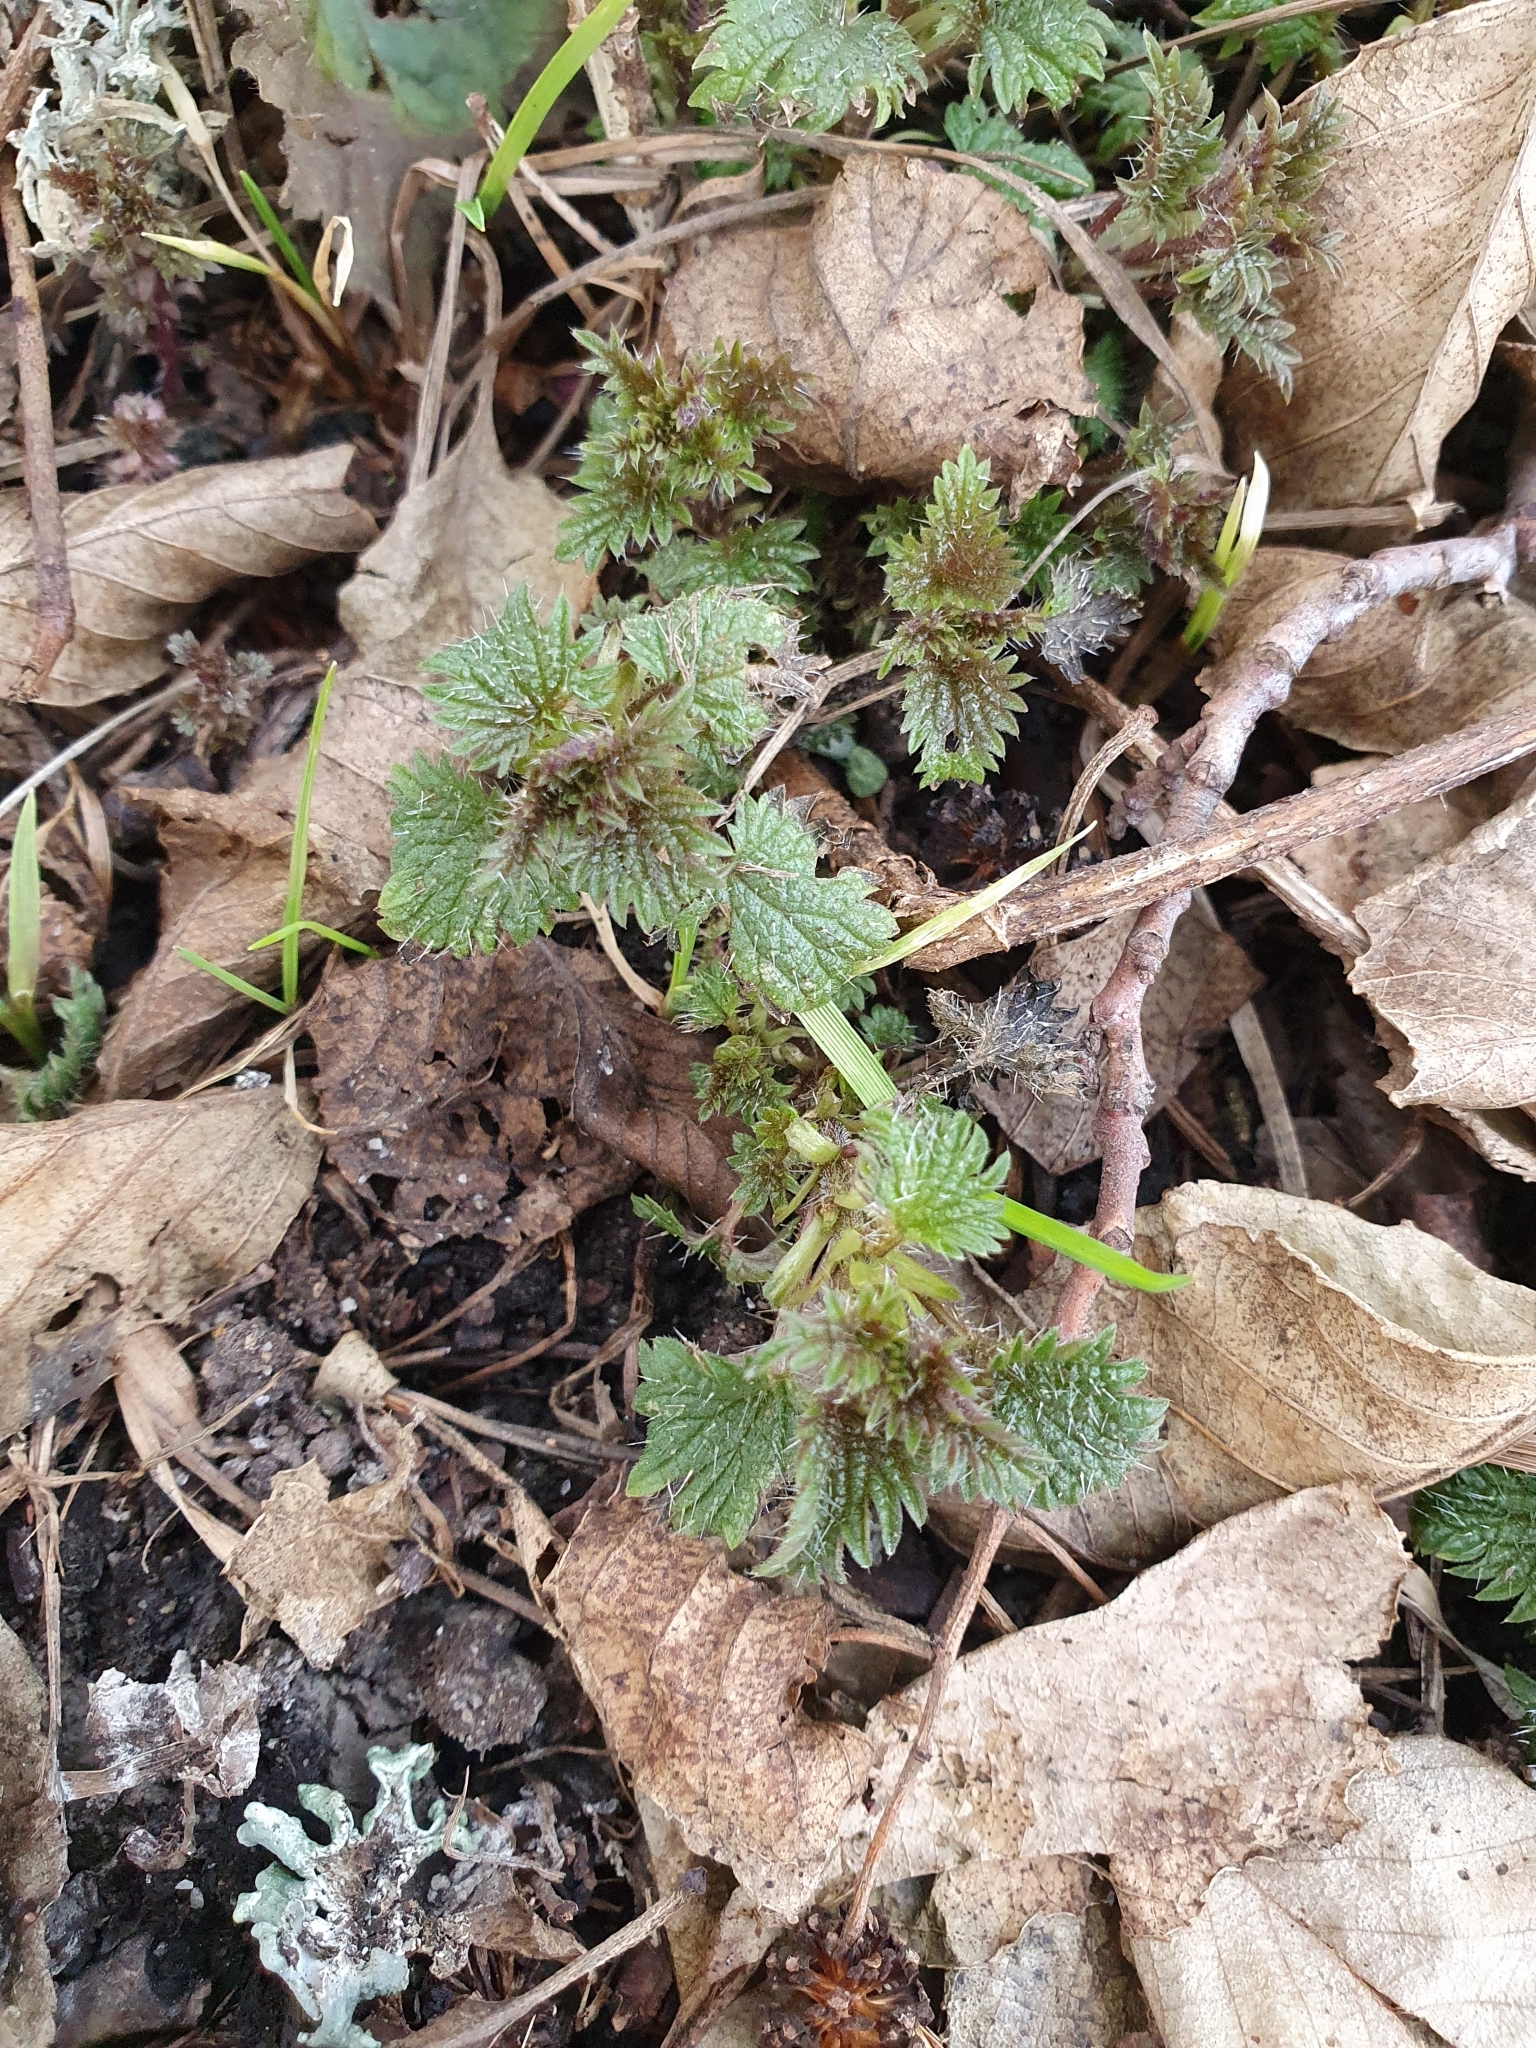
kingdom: Plantae
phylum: Tracheophyta
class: Magnoliopsida
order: Rosales
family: Urticaceae
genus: Urtica
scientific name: Urtica dioica
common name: Common nettle
